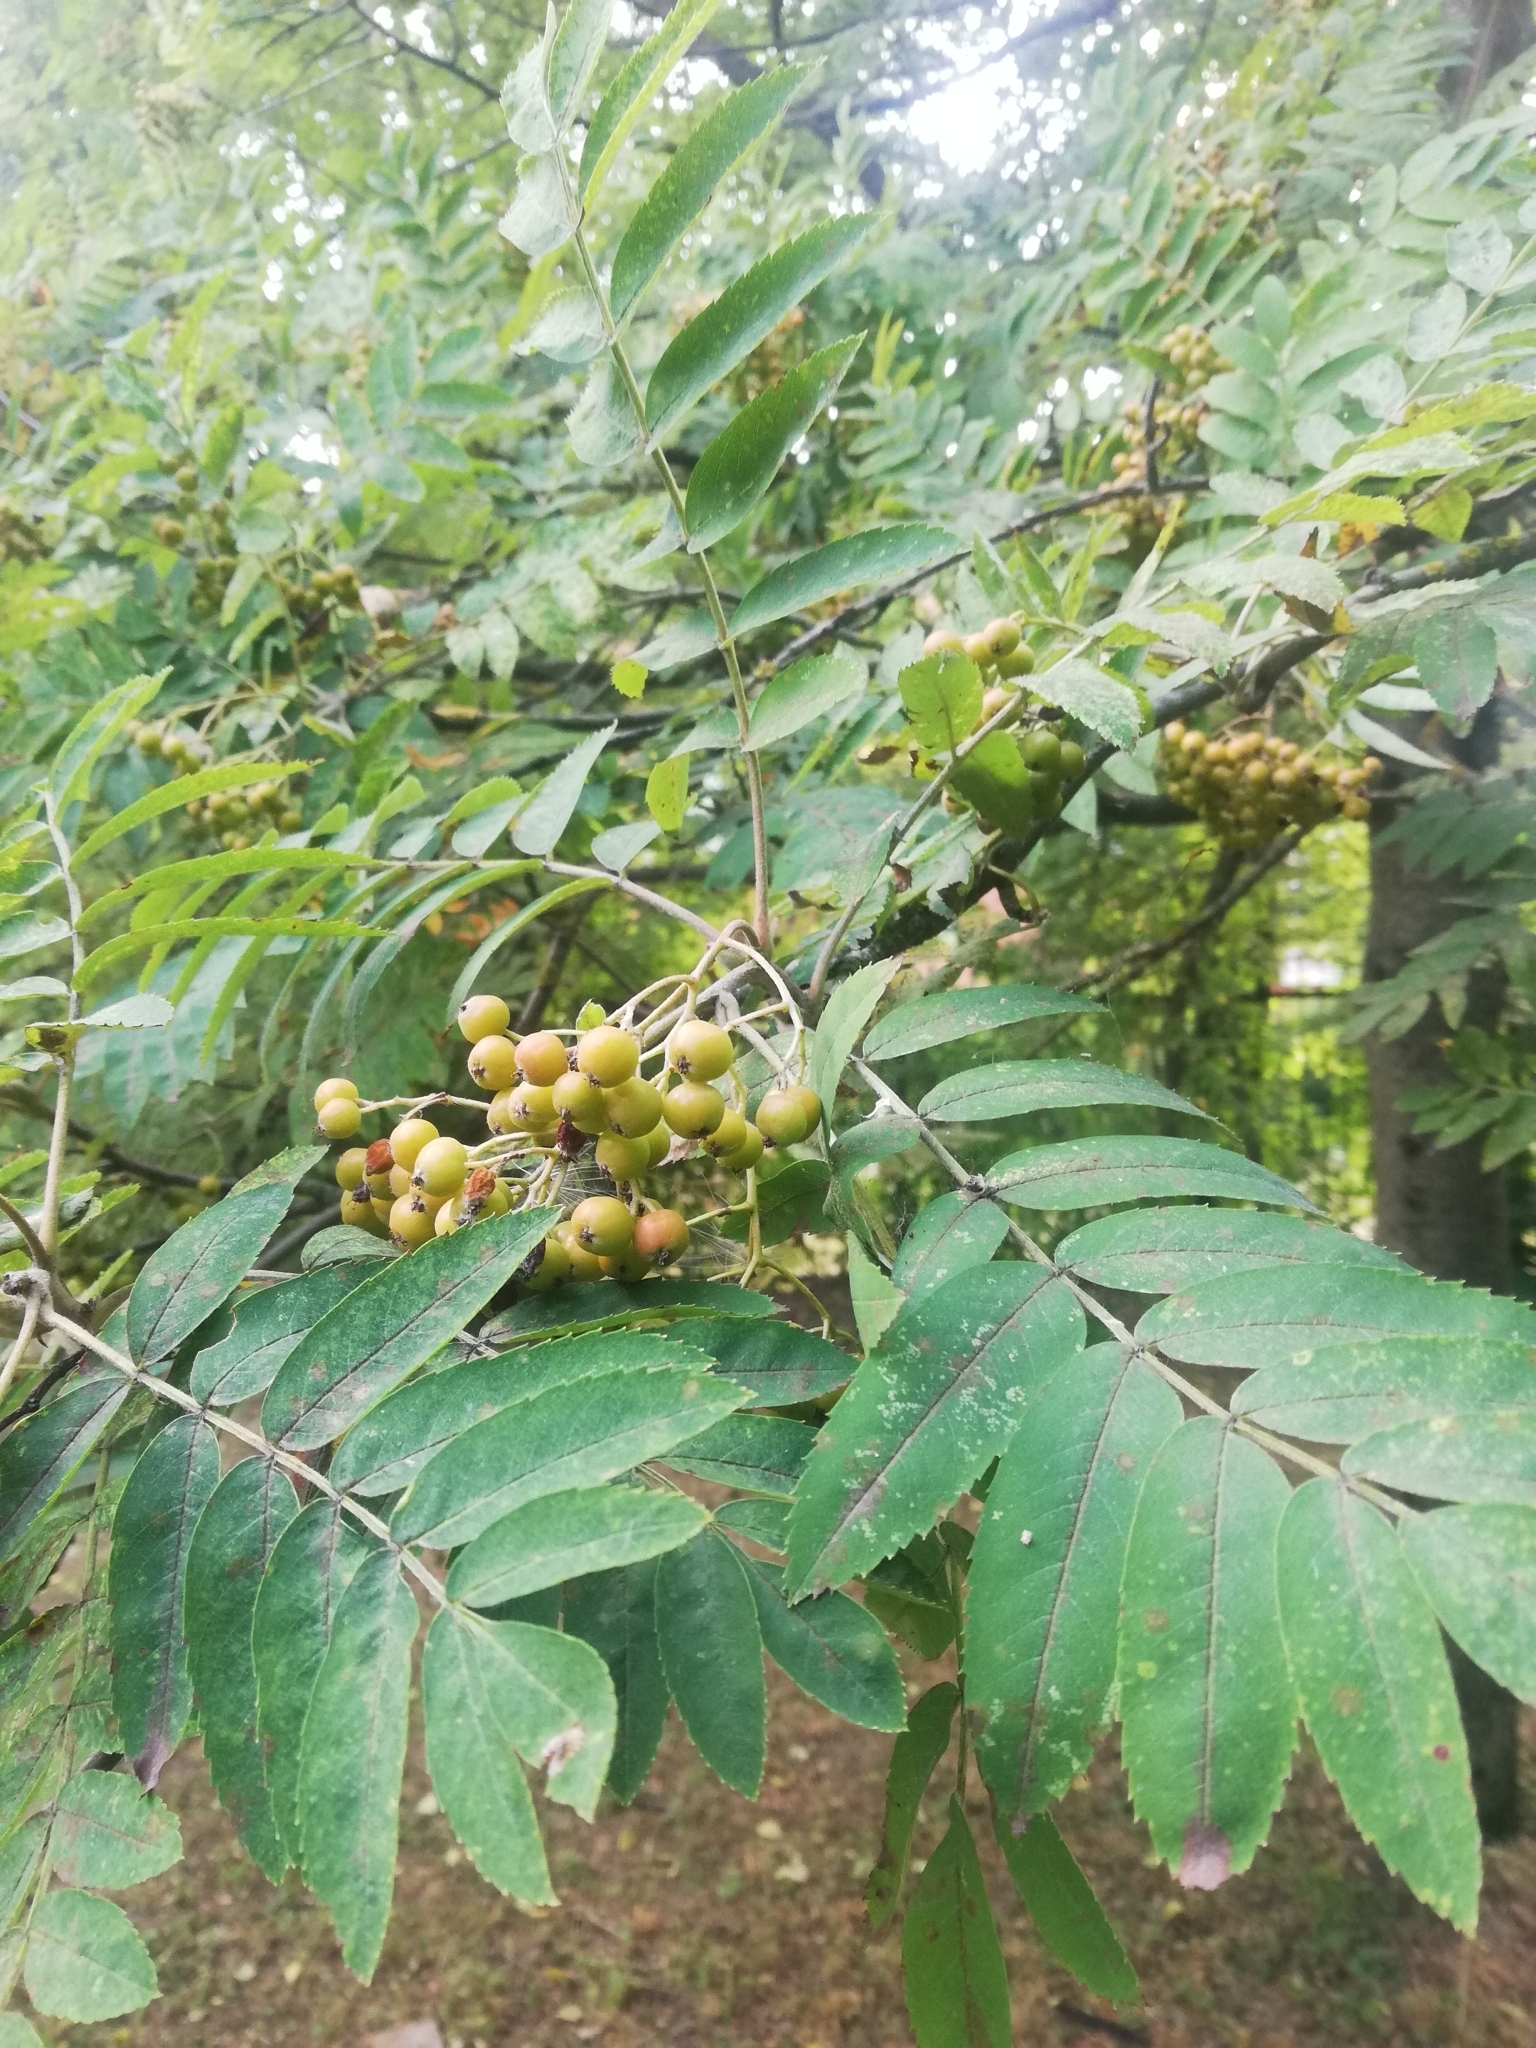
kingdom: Plantae
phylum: Tracheophyta
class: Magnoliopsida
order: Rosales
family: Rosaceae
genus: Sorbus
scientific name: Sorbus aucuparia
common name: Rowan
